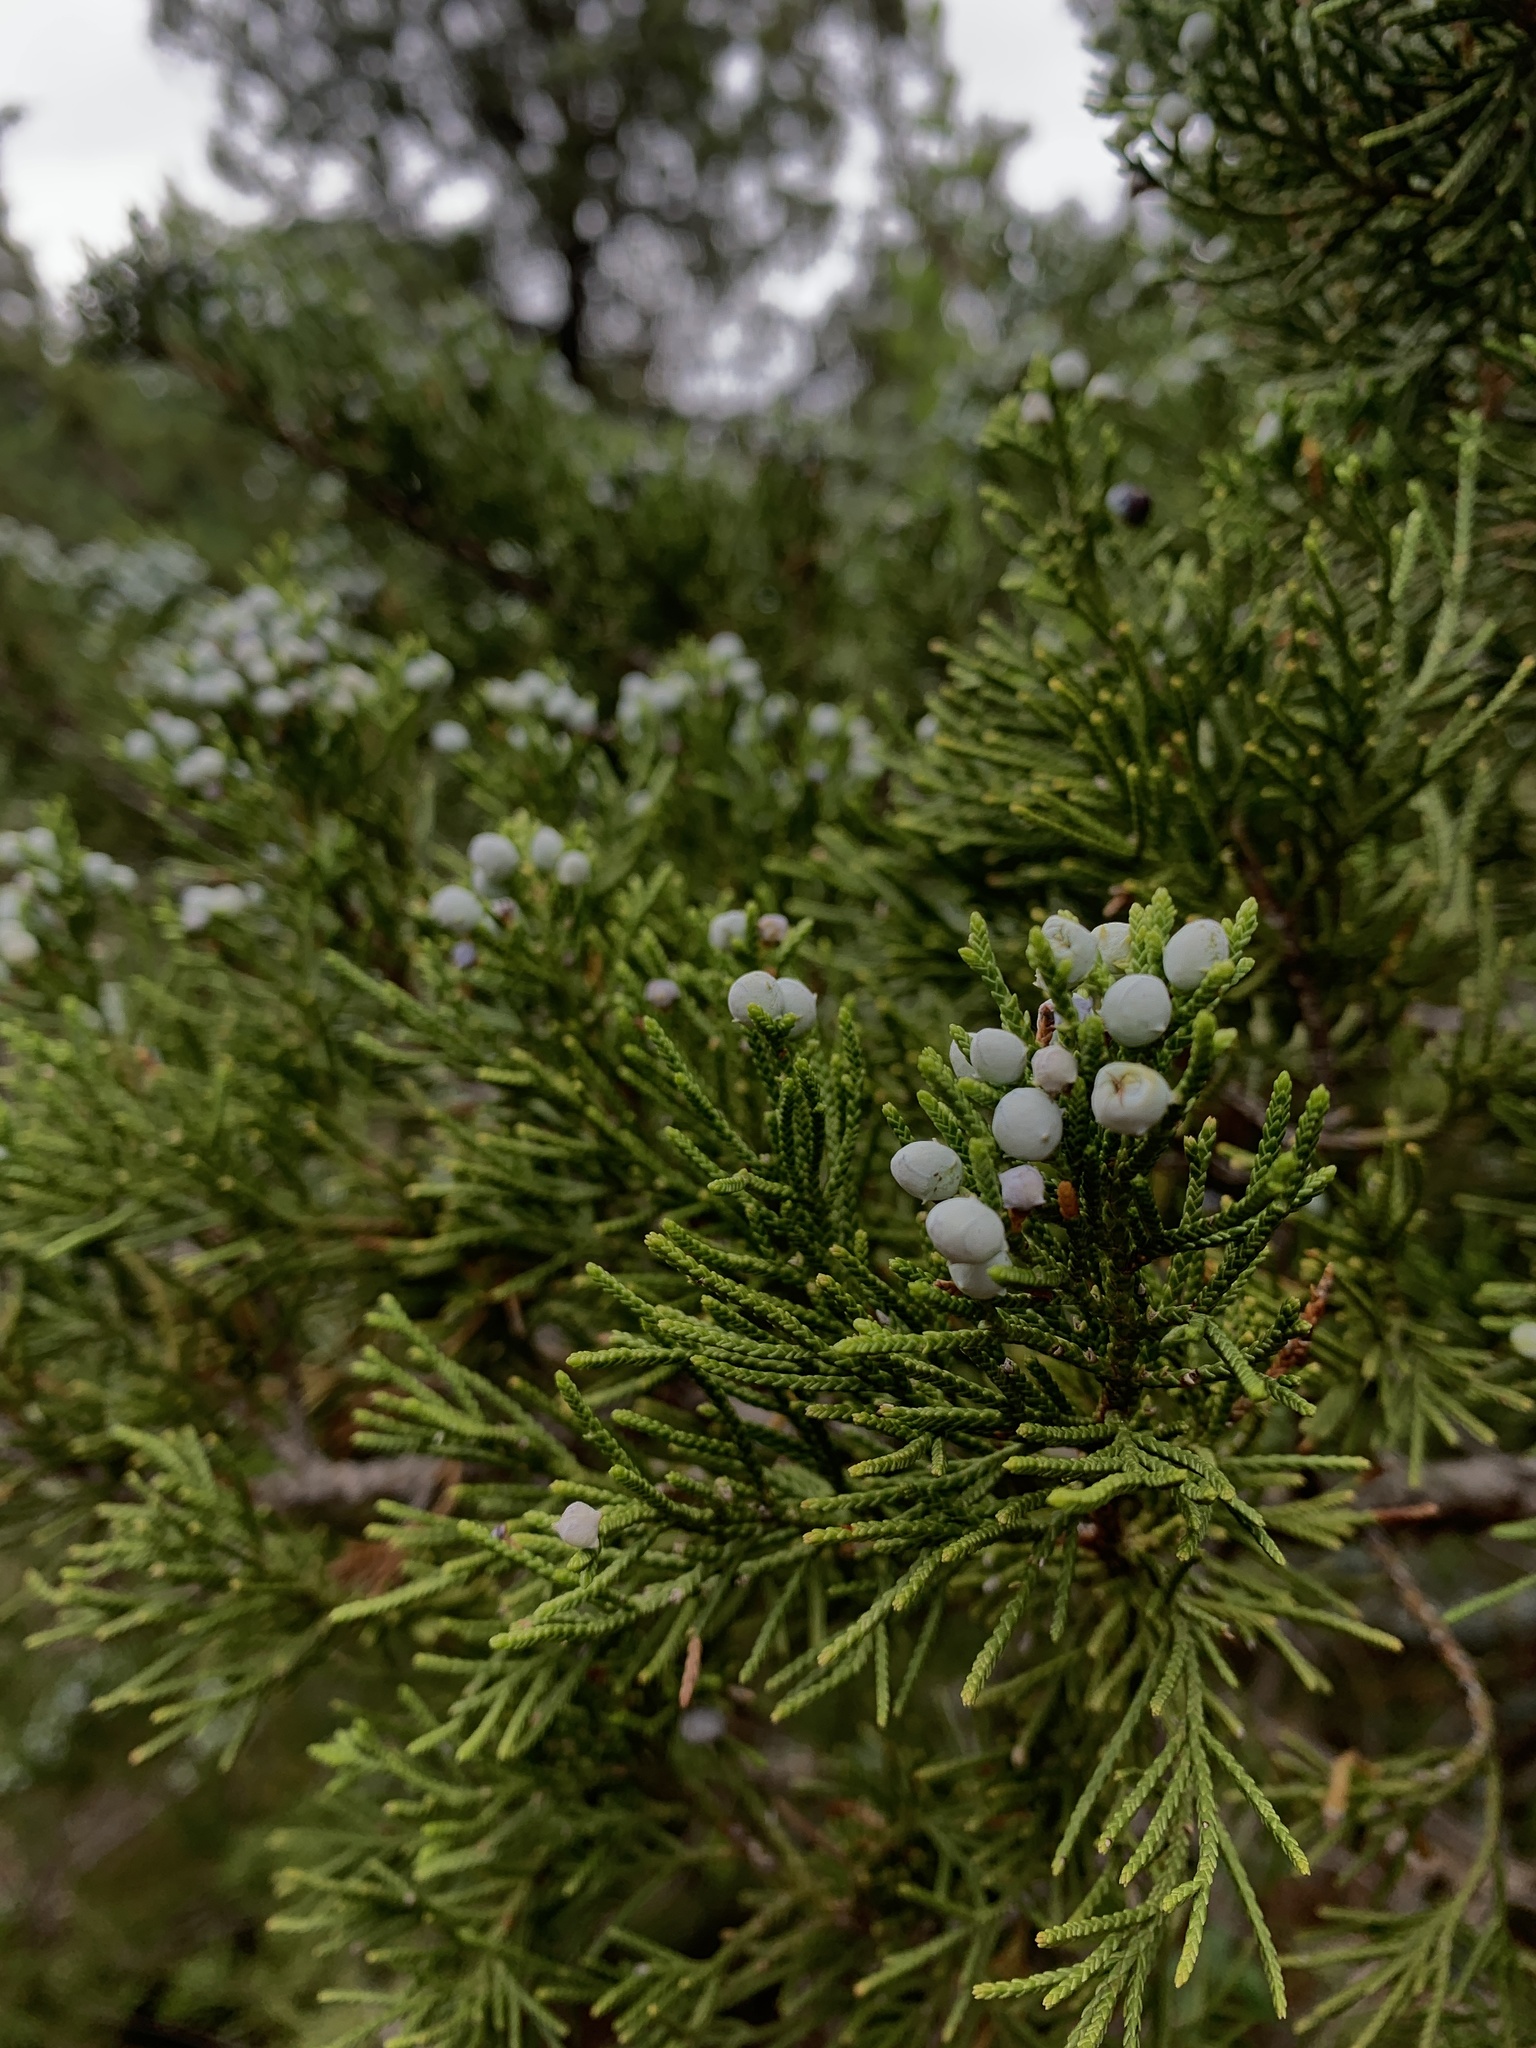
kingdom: Plantae
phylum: Tracheophyta
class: Pinopsida
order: Pinales
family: Cupressaceae
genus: Juniperus
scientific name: Juniperus virginiana
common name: Red juniper
